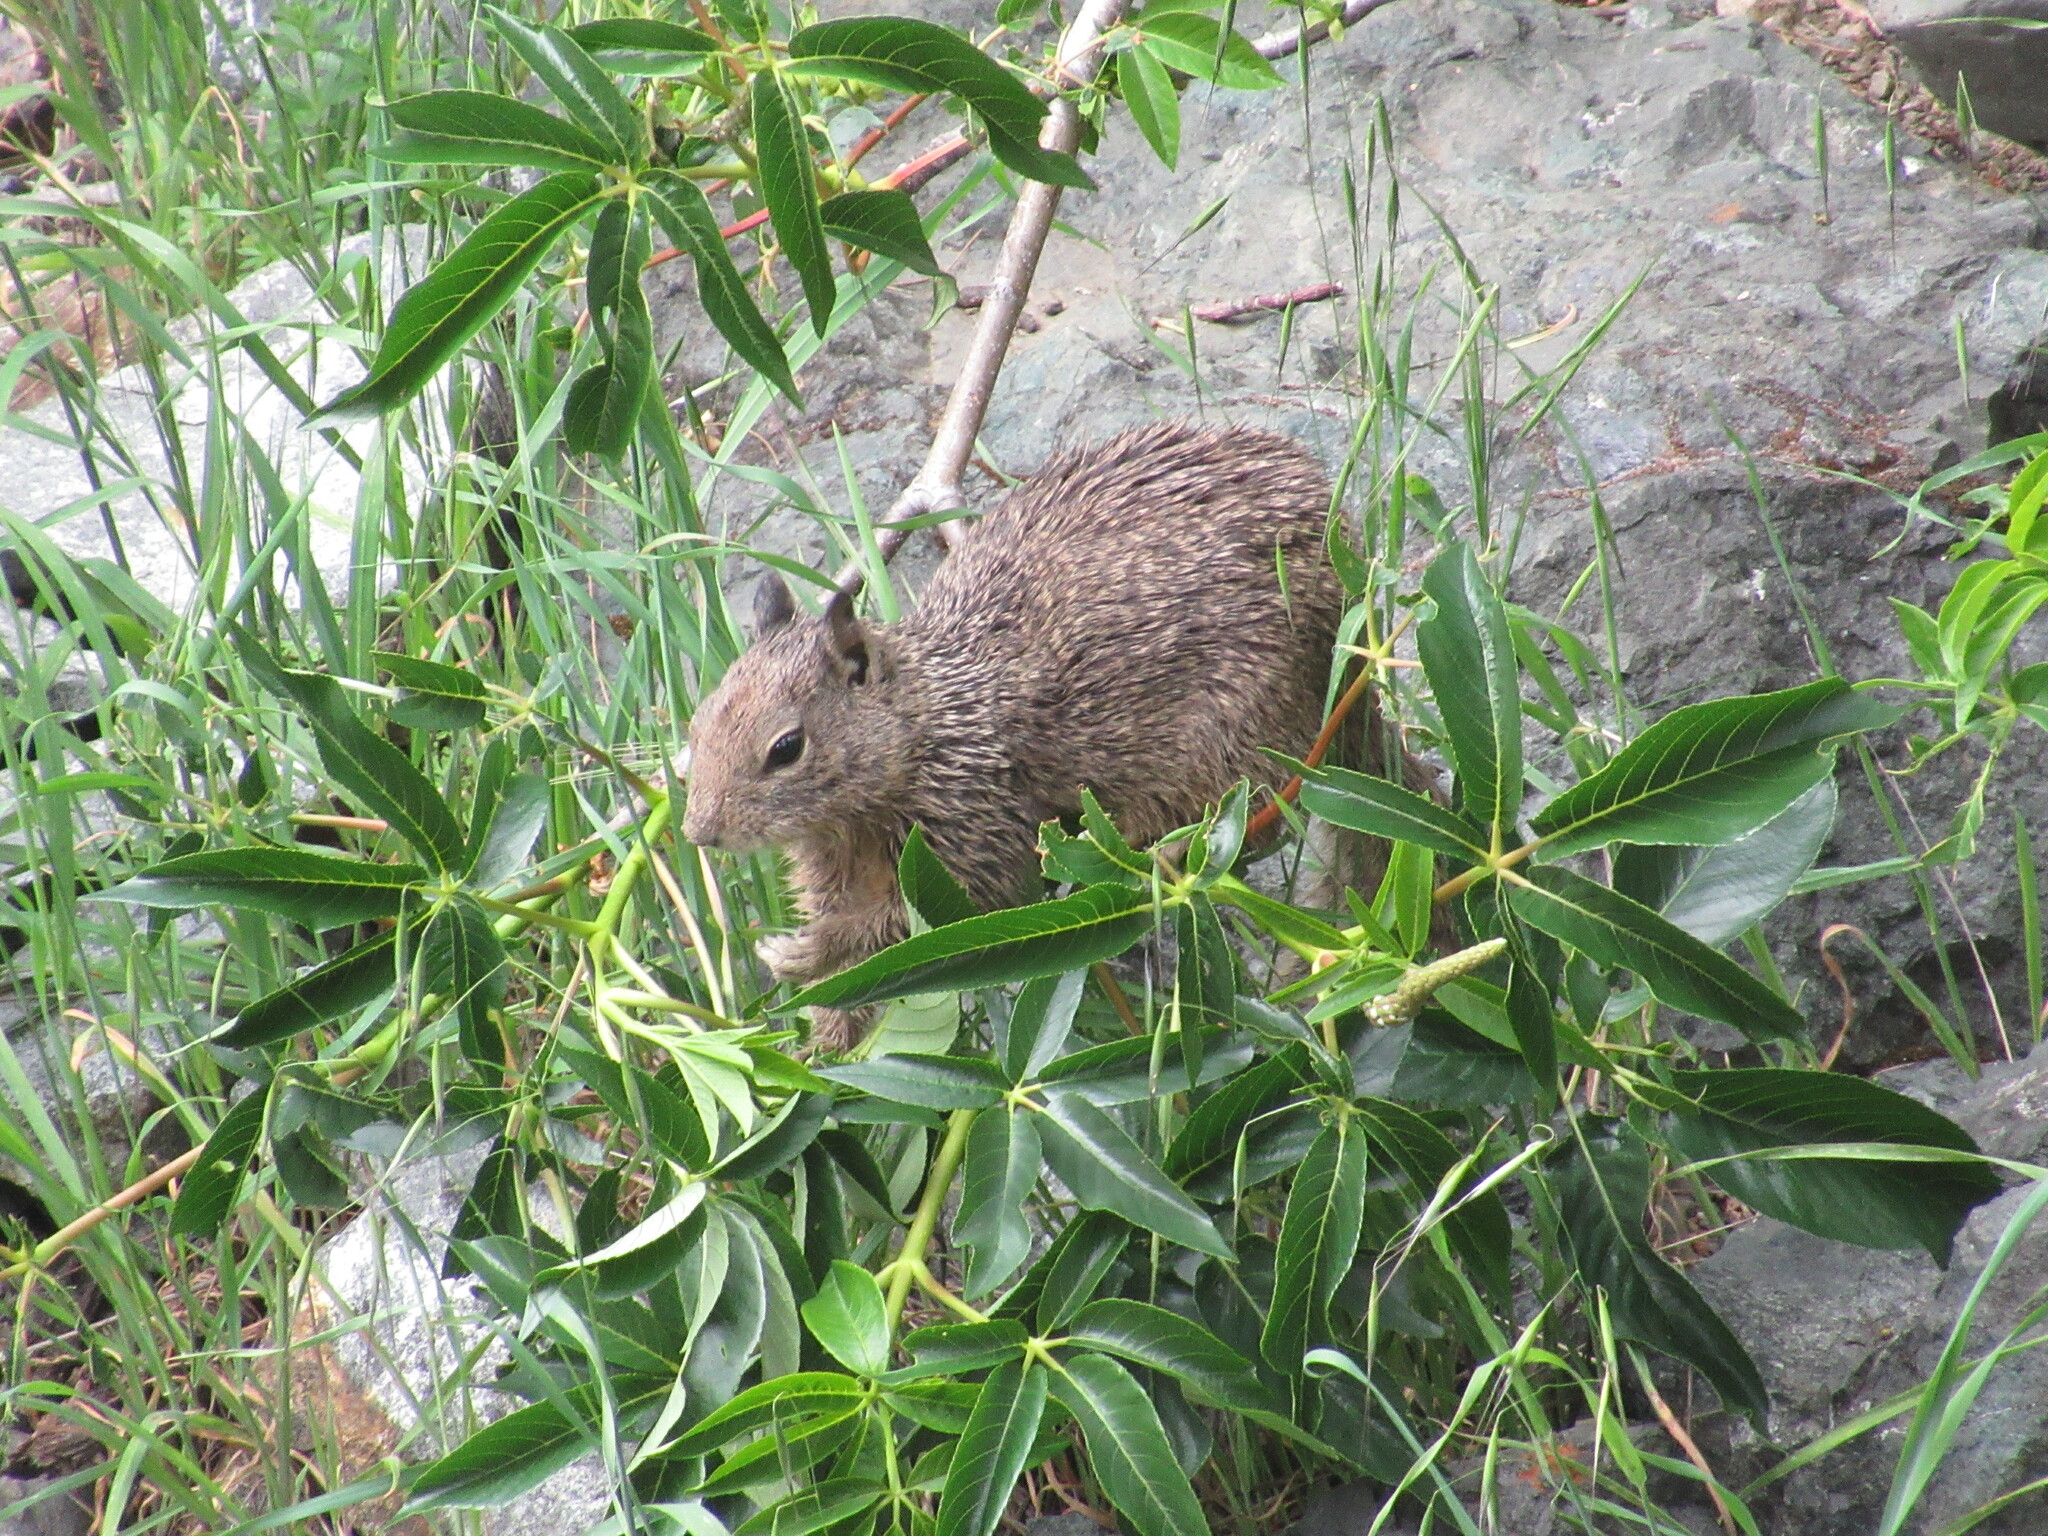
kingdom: Animalia
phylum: Chordata
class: Mammalia
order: Rodentia
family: Sciuridae
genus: Otospermophilus
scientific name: Otospermophilus beecheyi
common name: California ground squirrel
